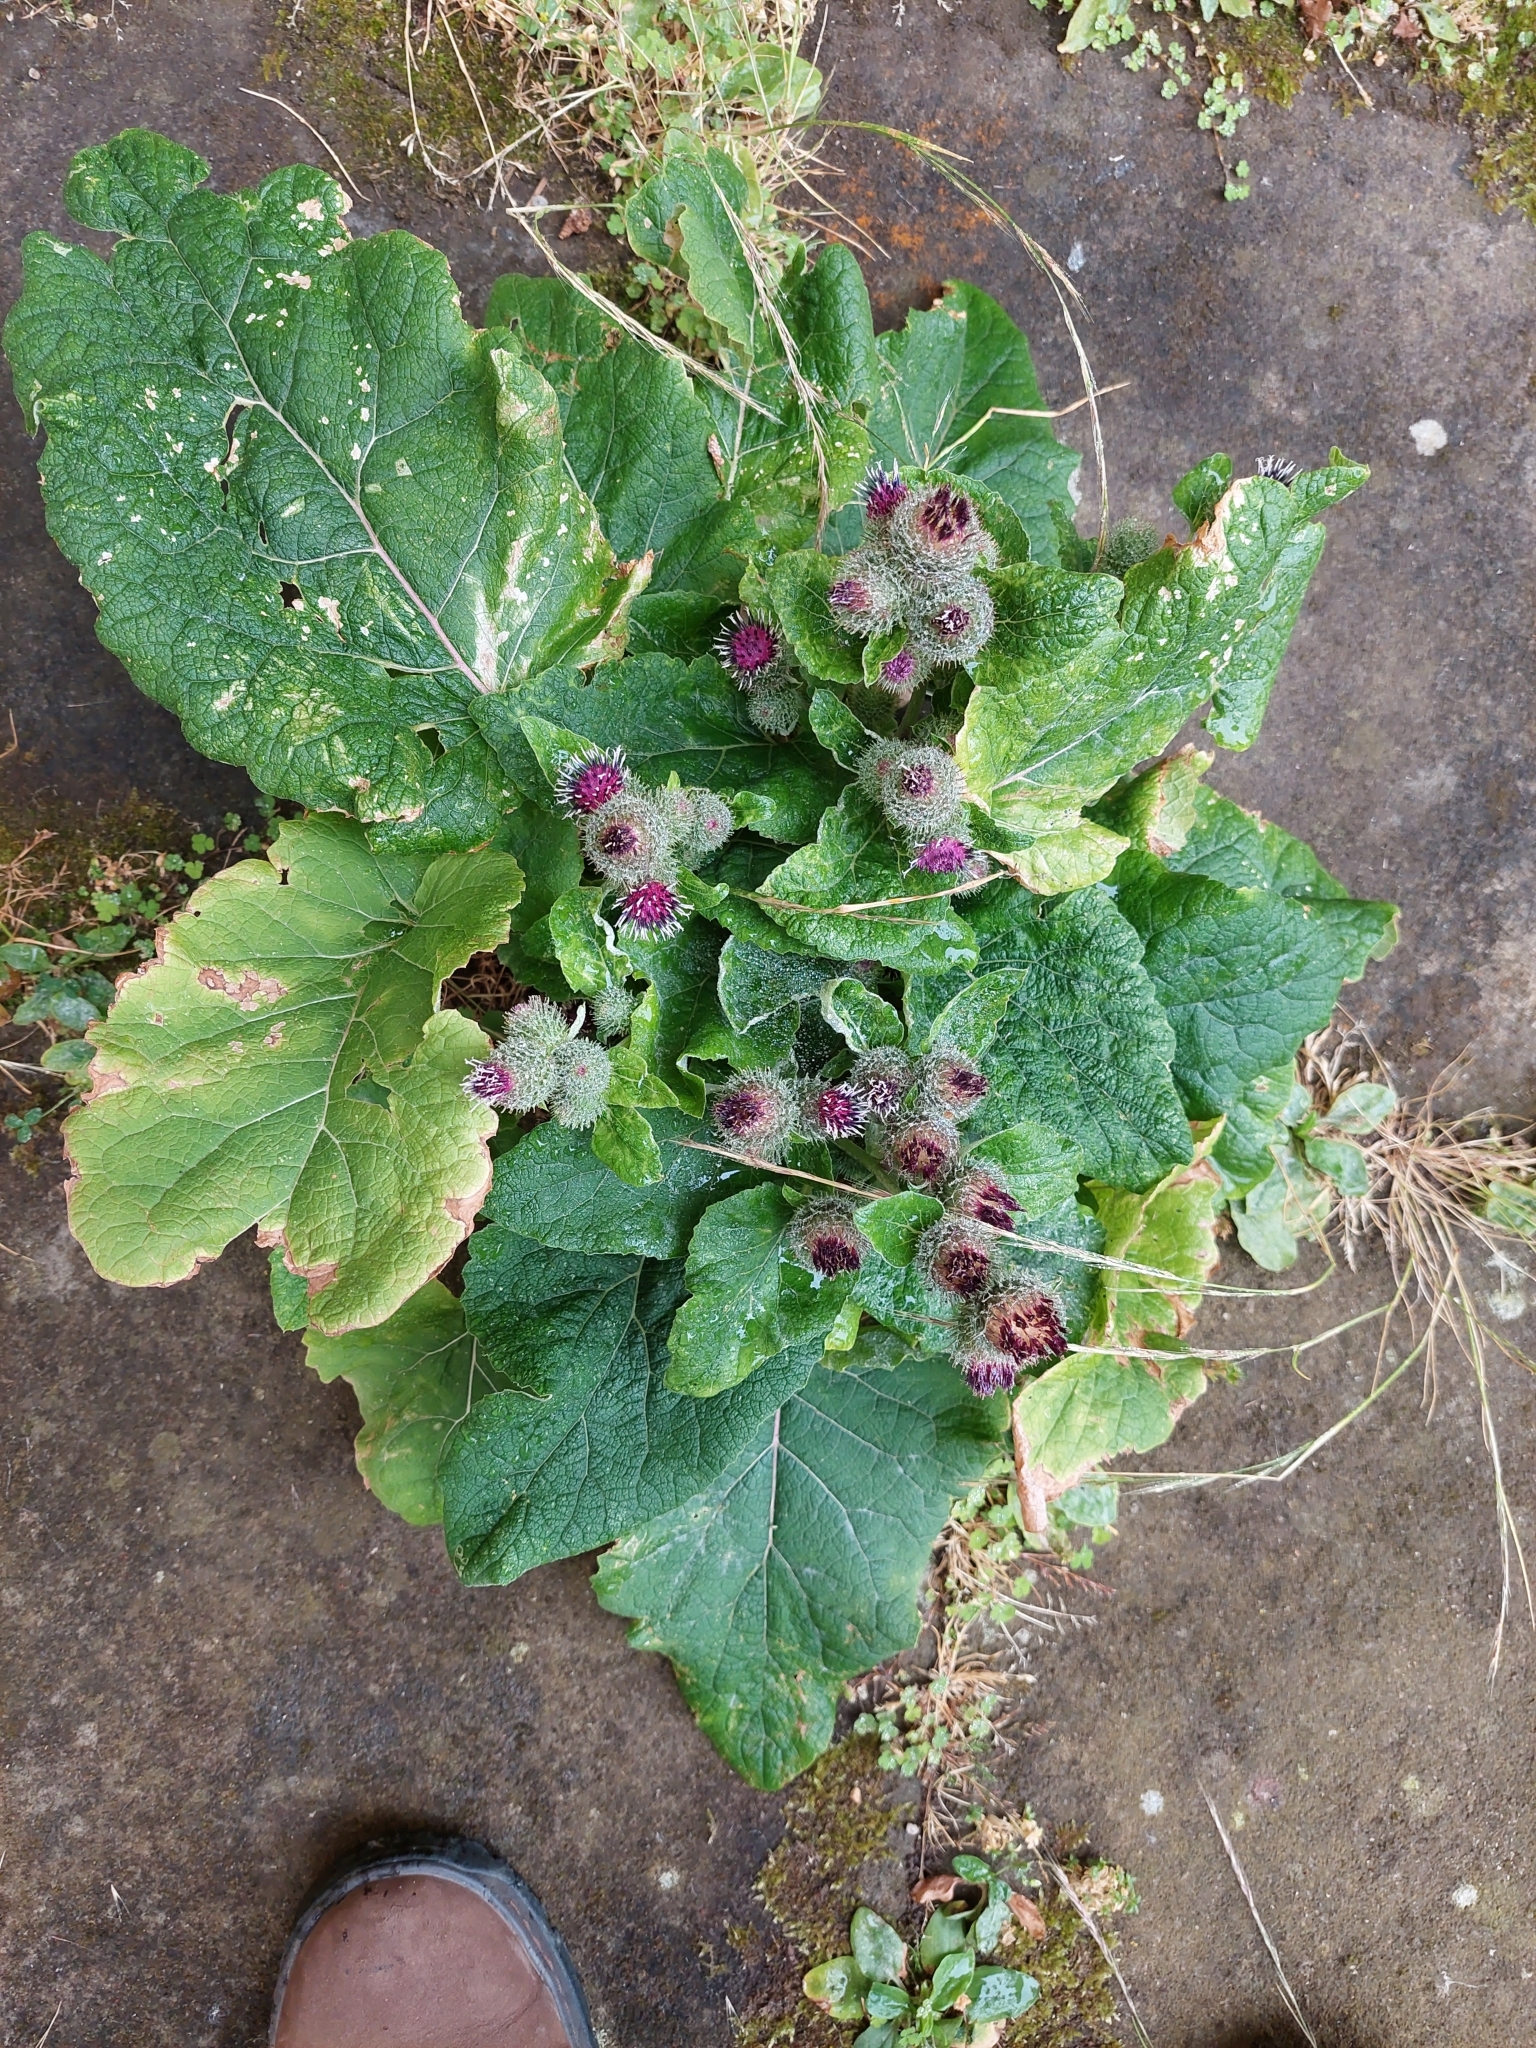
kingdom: Plantae
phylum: Tracheophyta
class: Magnoliopsida
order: Asterales
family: Asteraceae
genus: Arctium
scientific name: Arctium lappa
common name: Greater burdock
